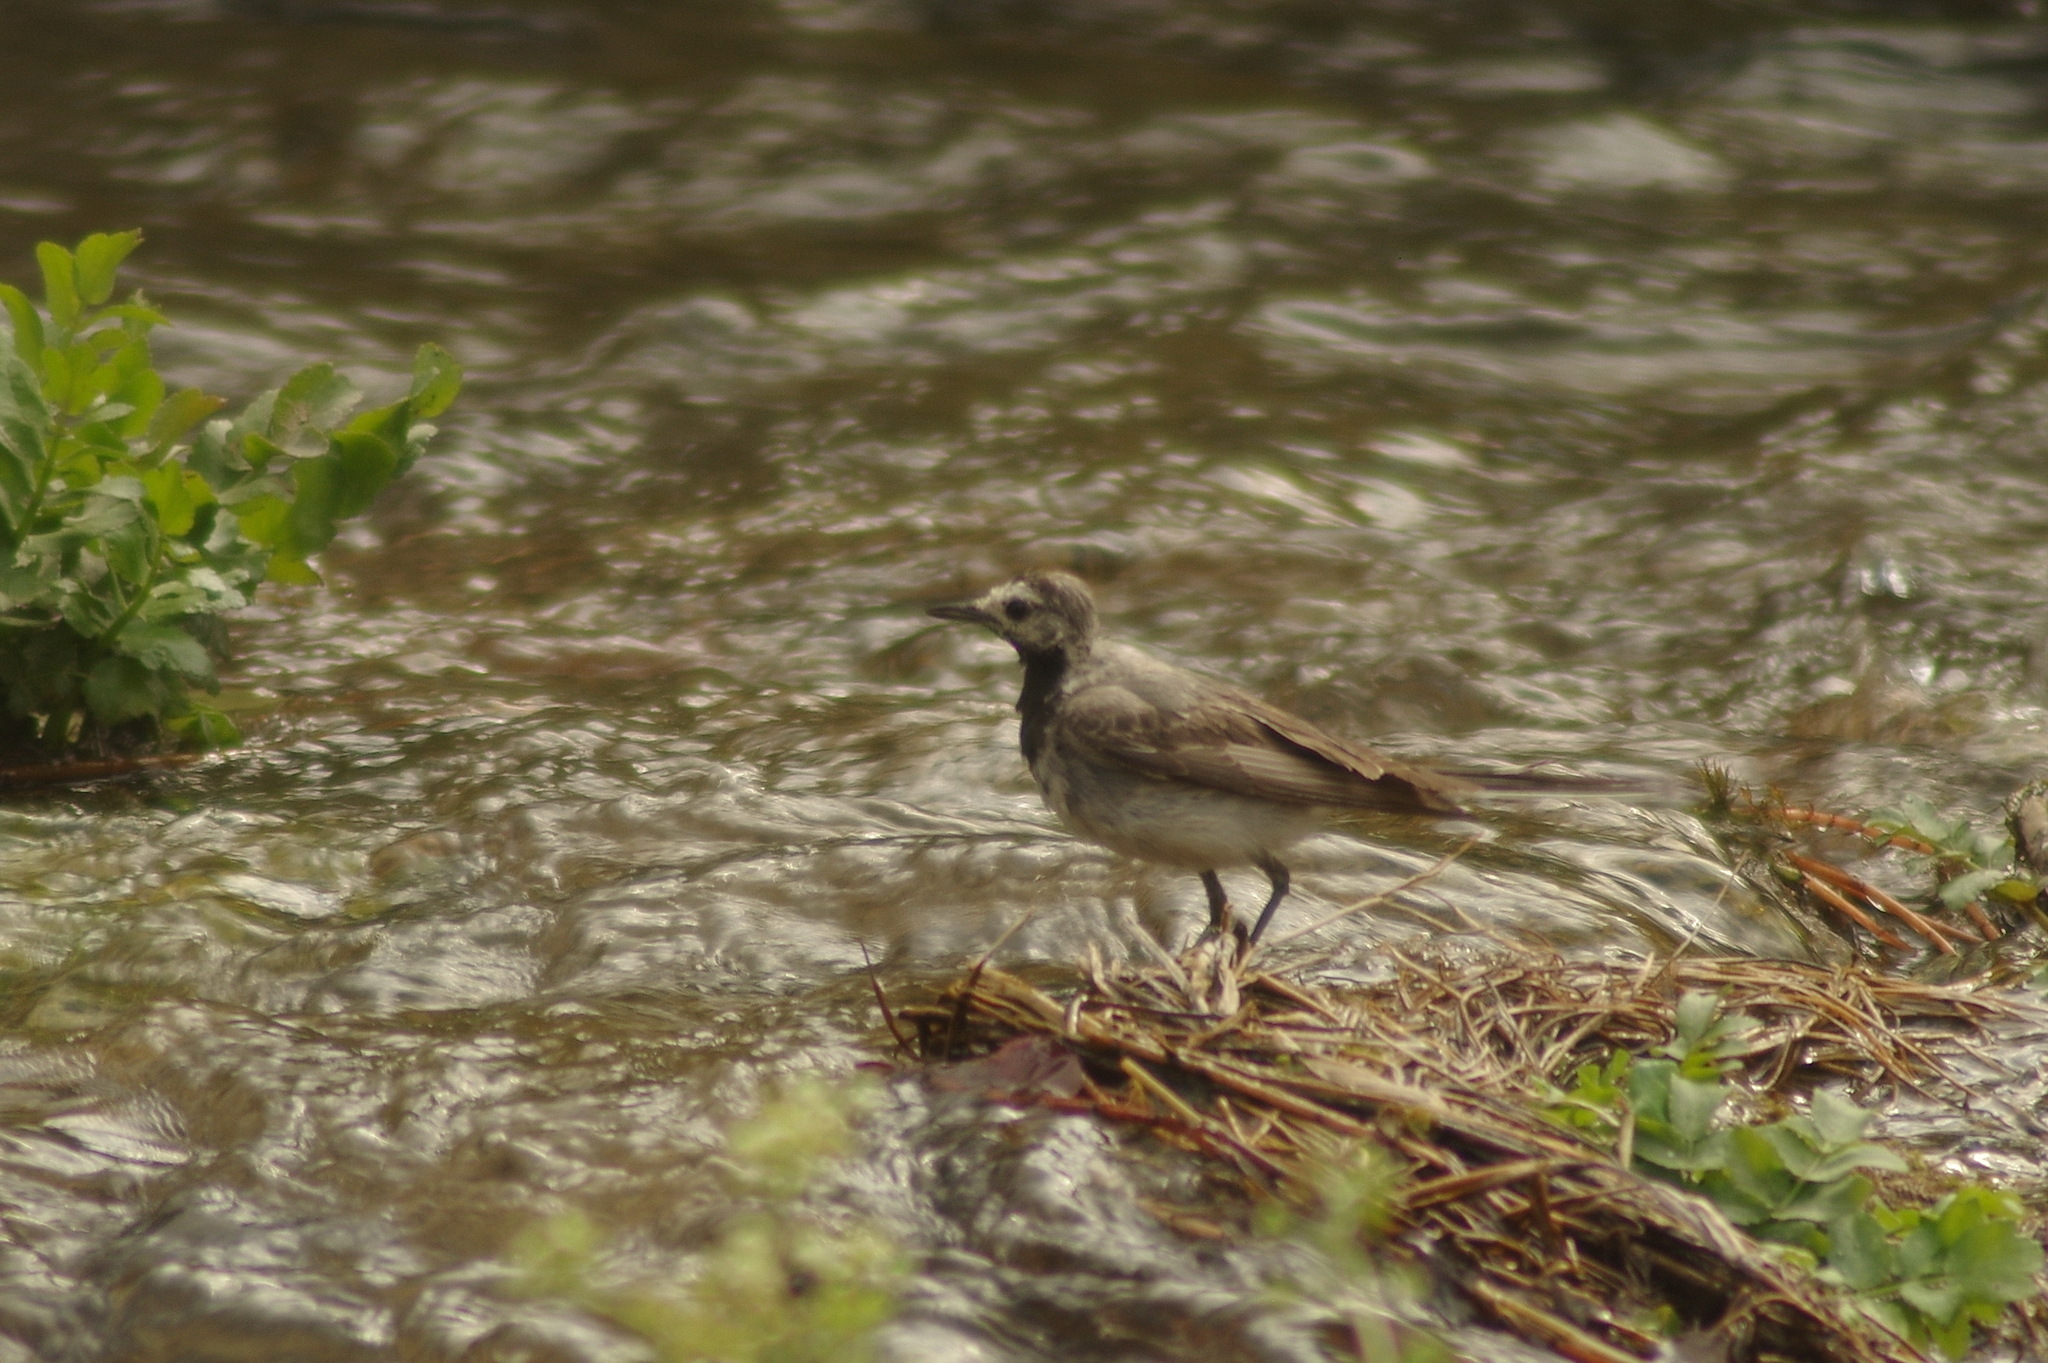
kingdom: Animalia
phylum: Chordata
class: Aves
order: Passeriformes
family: Motacillidae
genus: Motacilla
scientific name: Motacilla alba
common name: White wagtail
